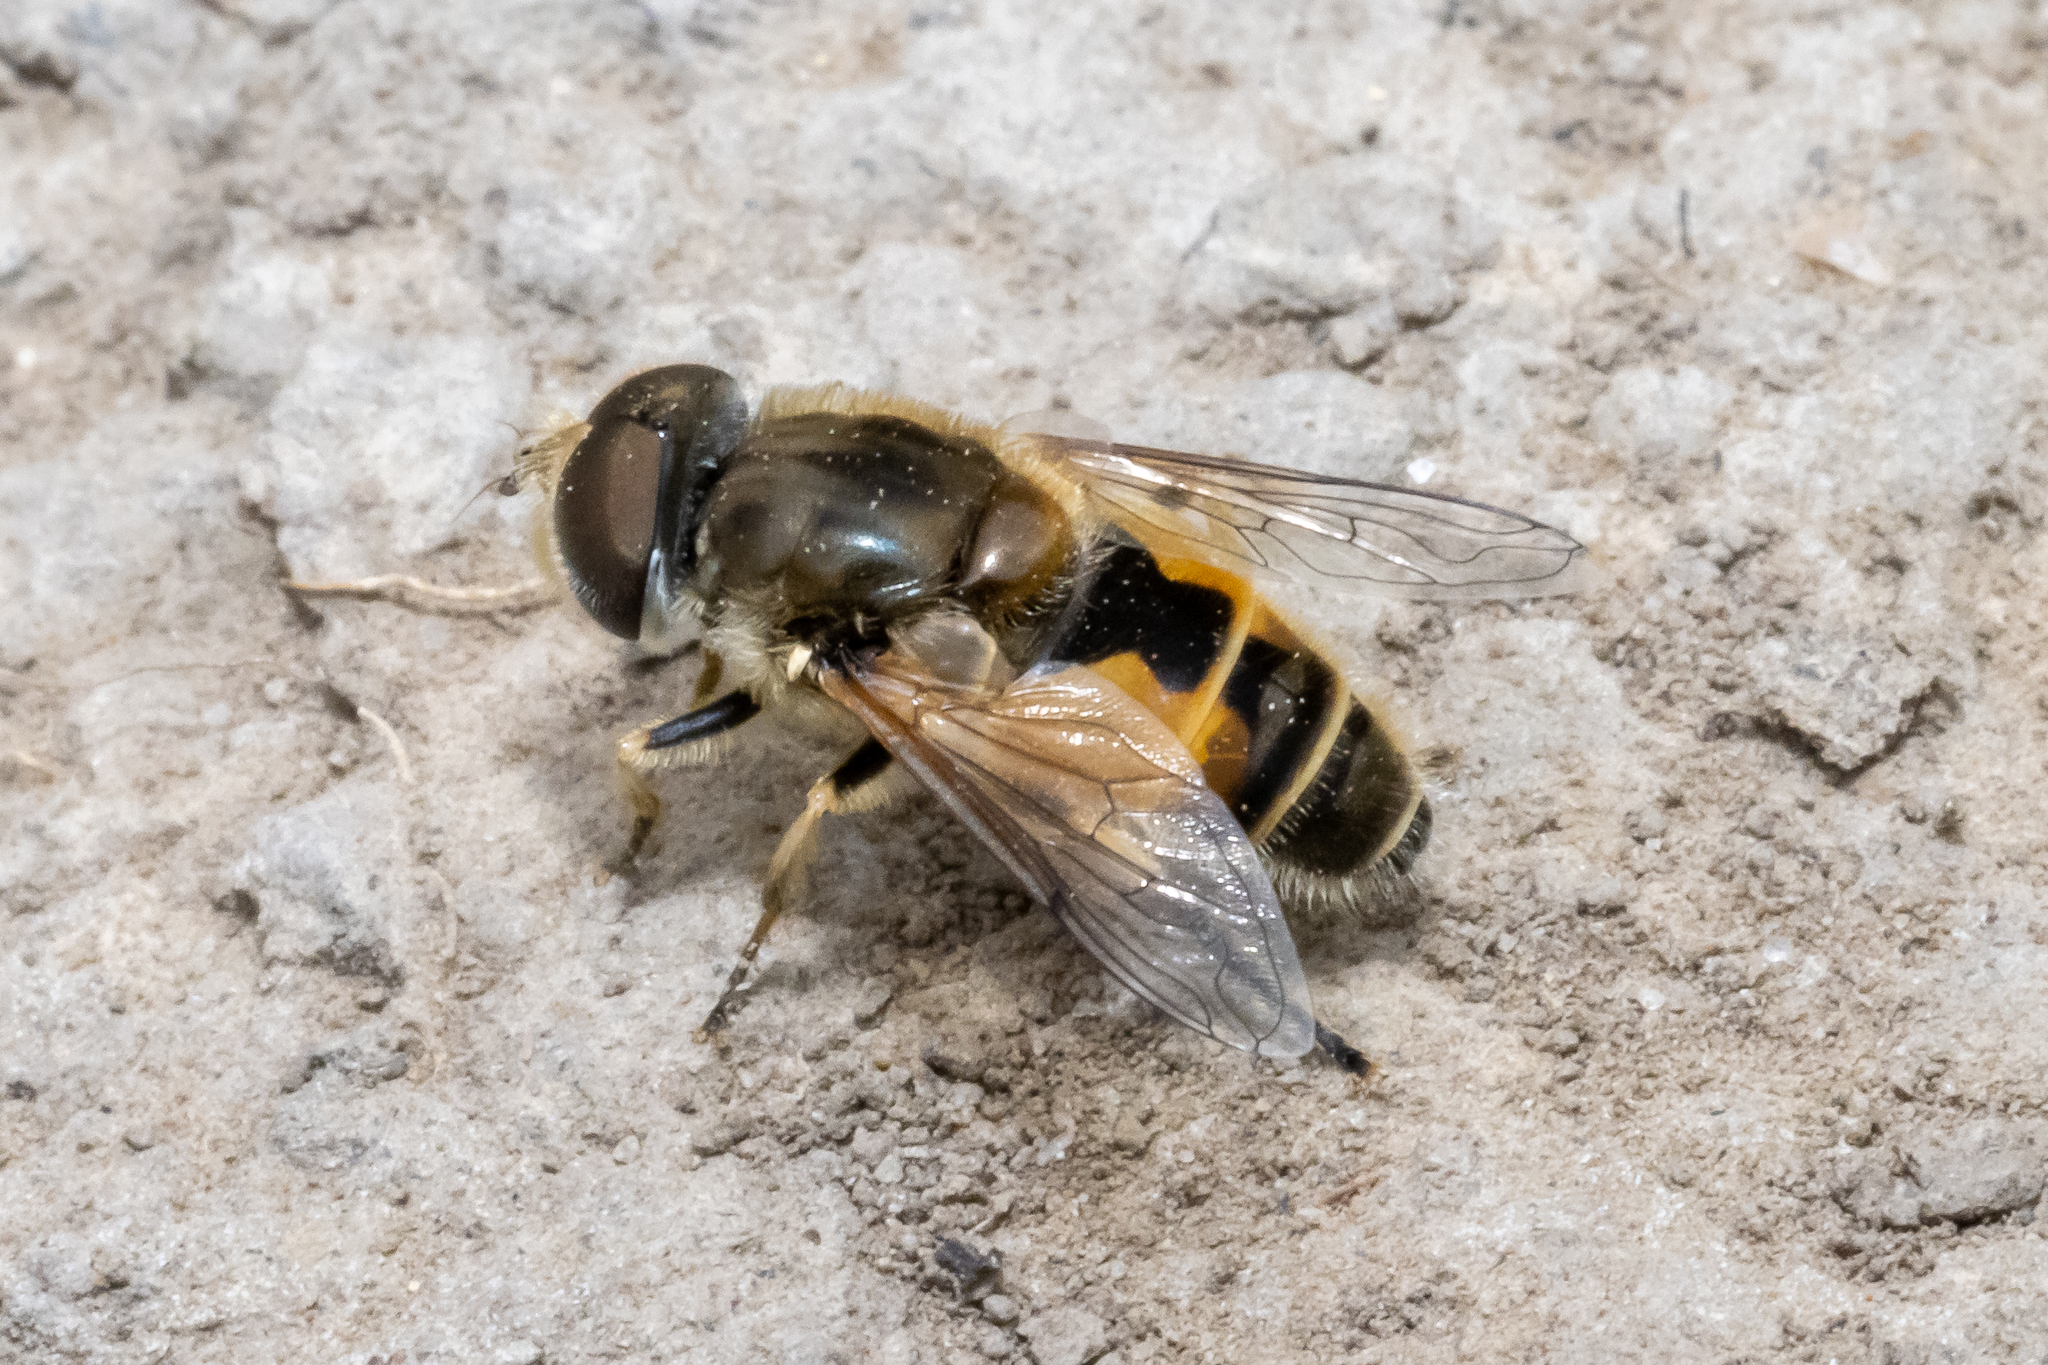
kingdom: Animalia
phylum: Arthropoda
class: Insecta
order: Diptera
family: Syrphidae
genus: Eristalis
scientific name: Eristalis arbustorum
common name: Hover fly
